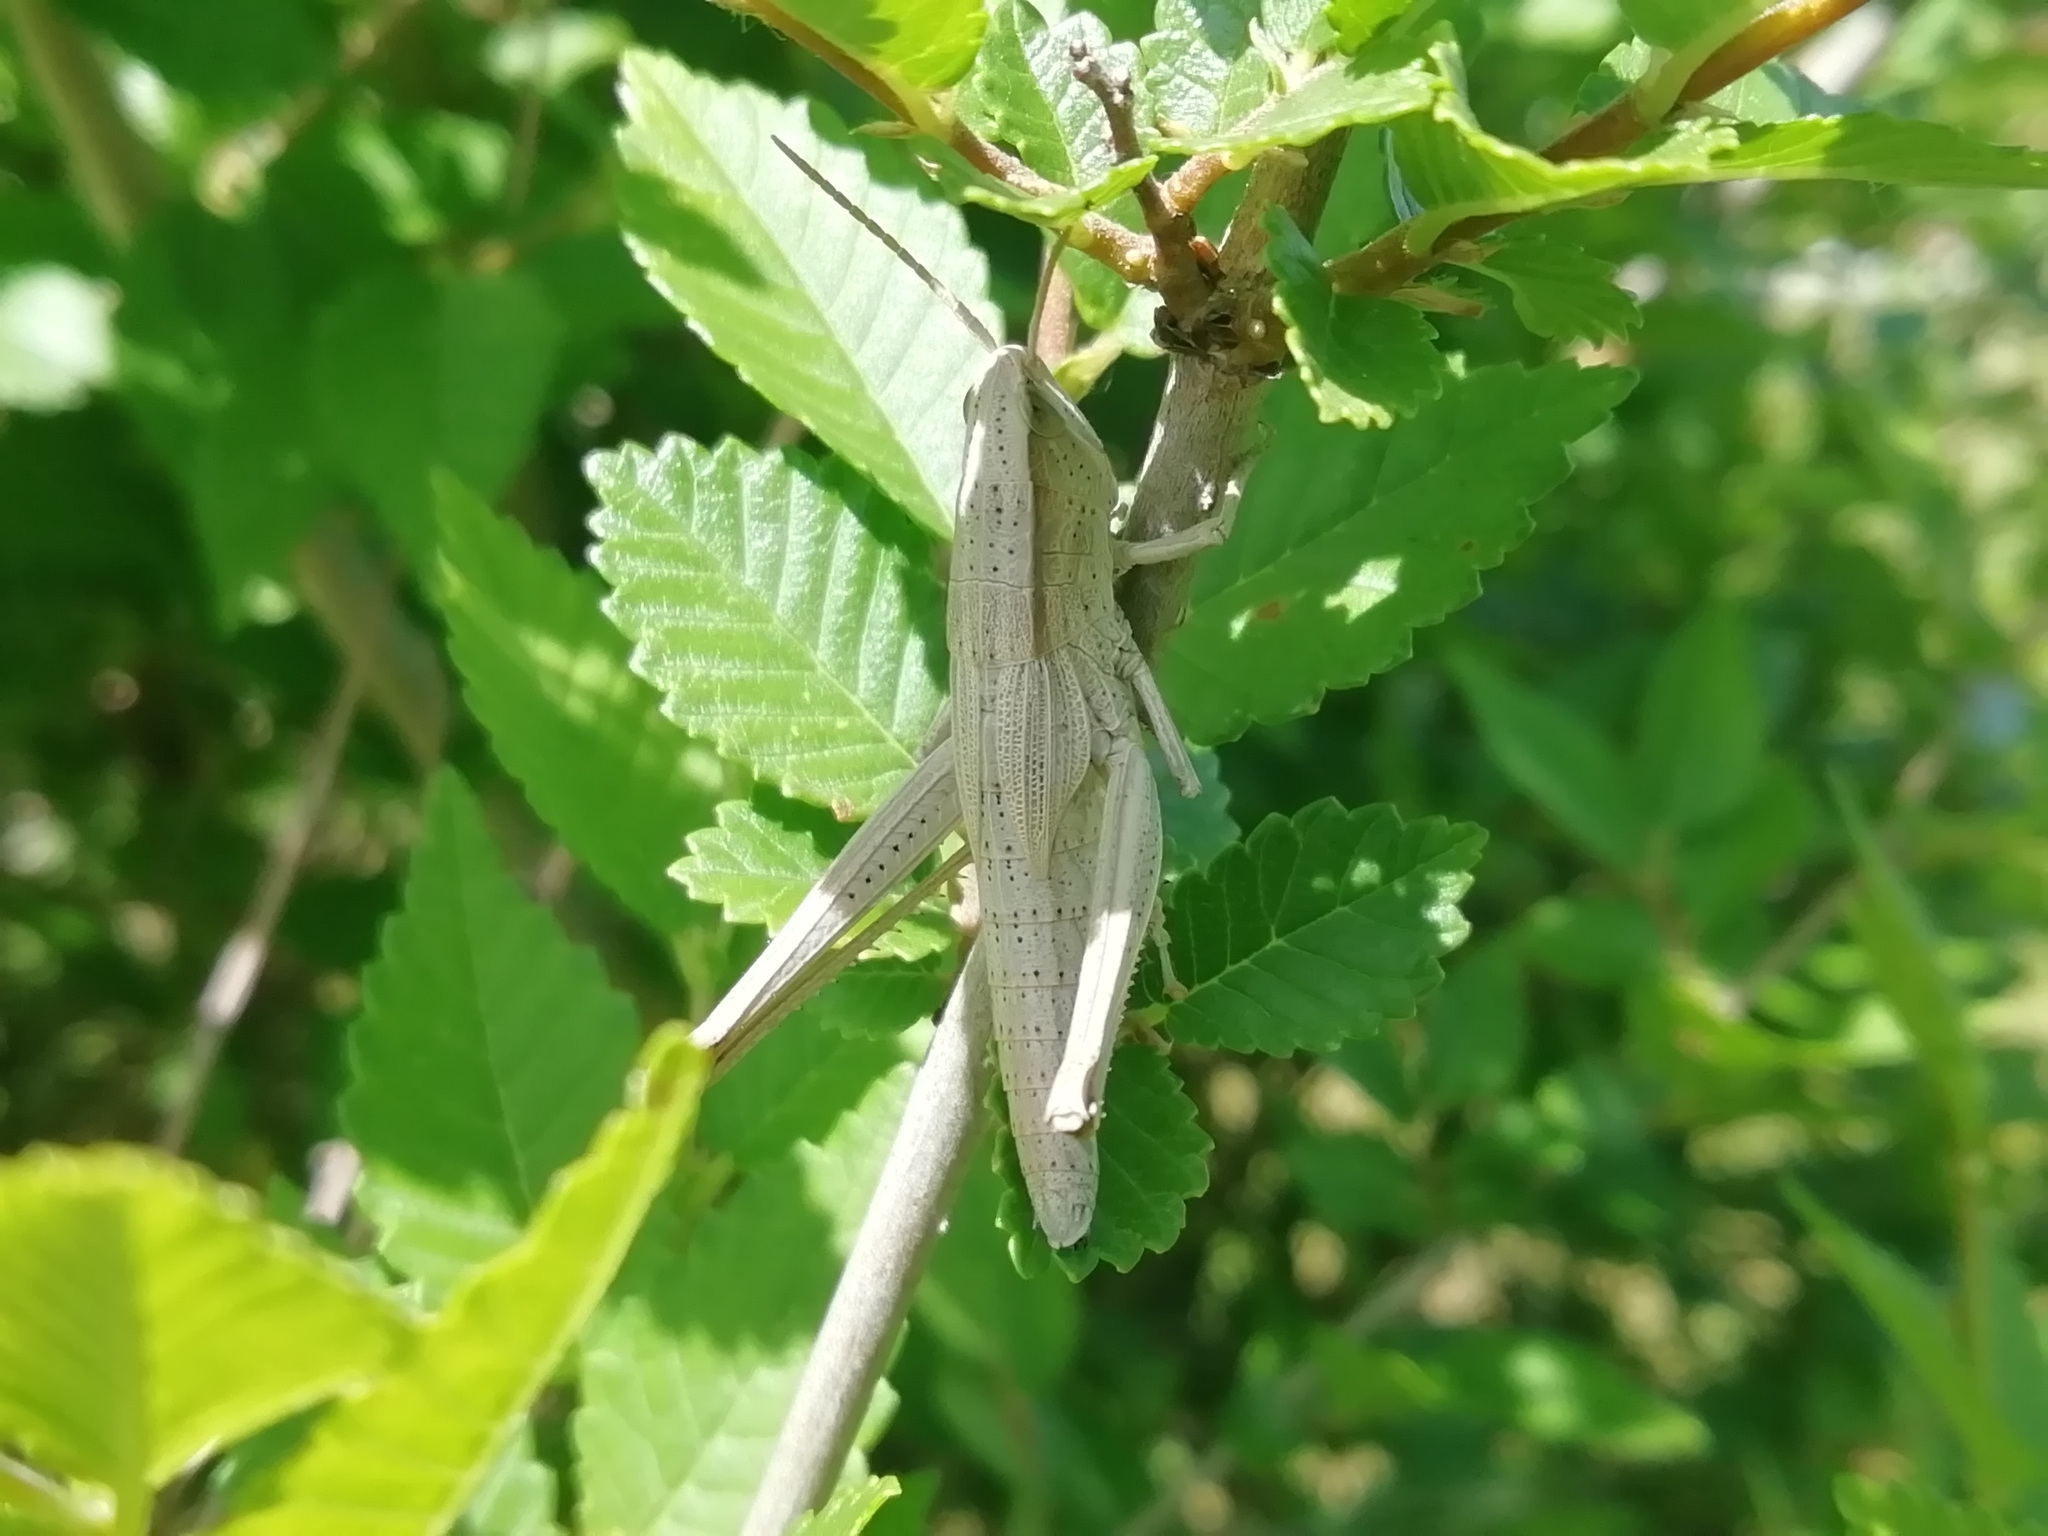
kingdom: Animalia
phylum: Arthropoda
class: Insecta
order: Orthoptera
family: Acrididae
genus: Chrysochraon
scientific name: Chrysochraon dispar
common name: Large gold grasshopper
